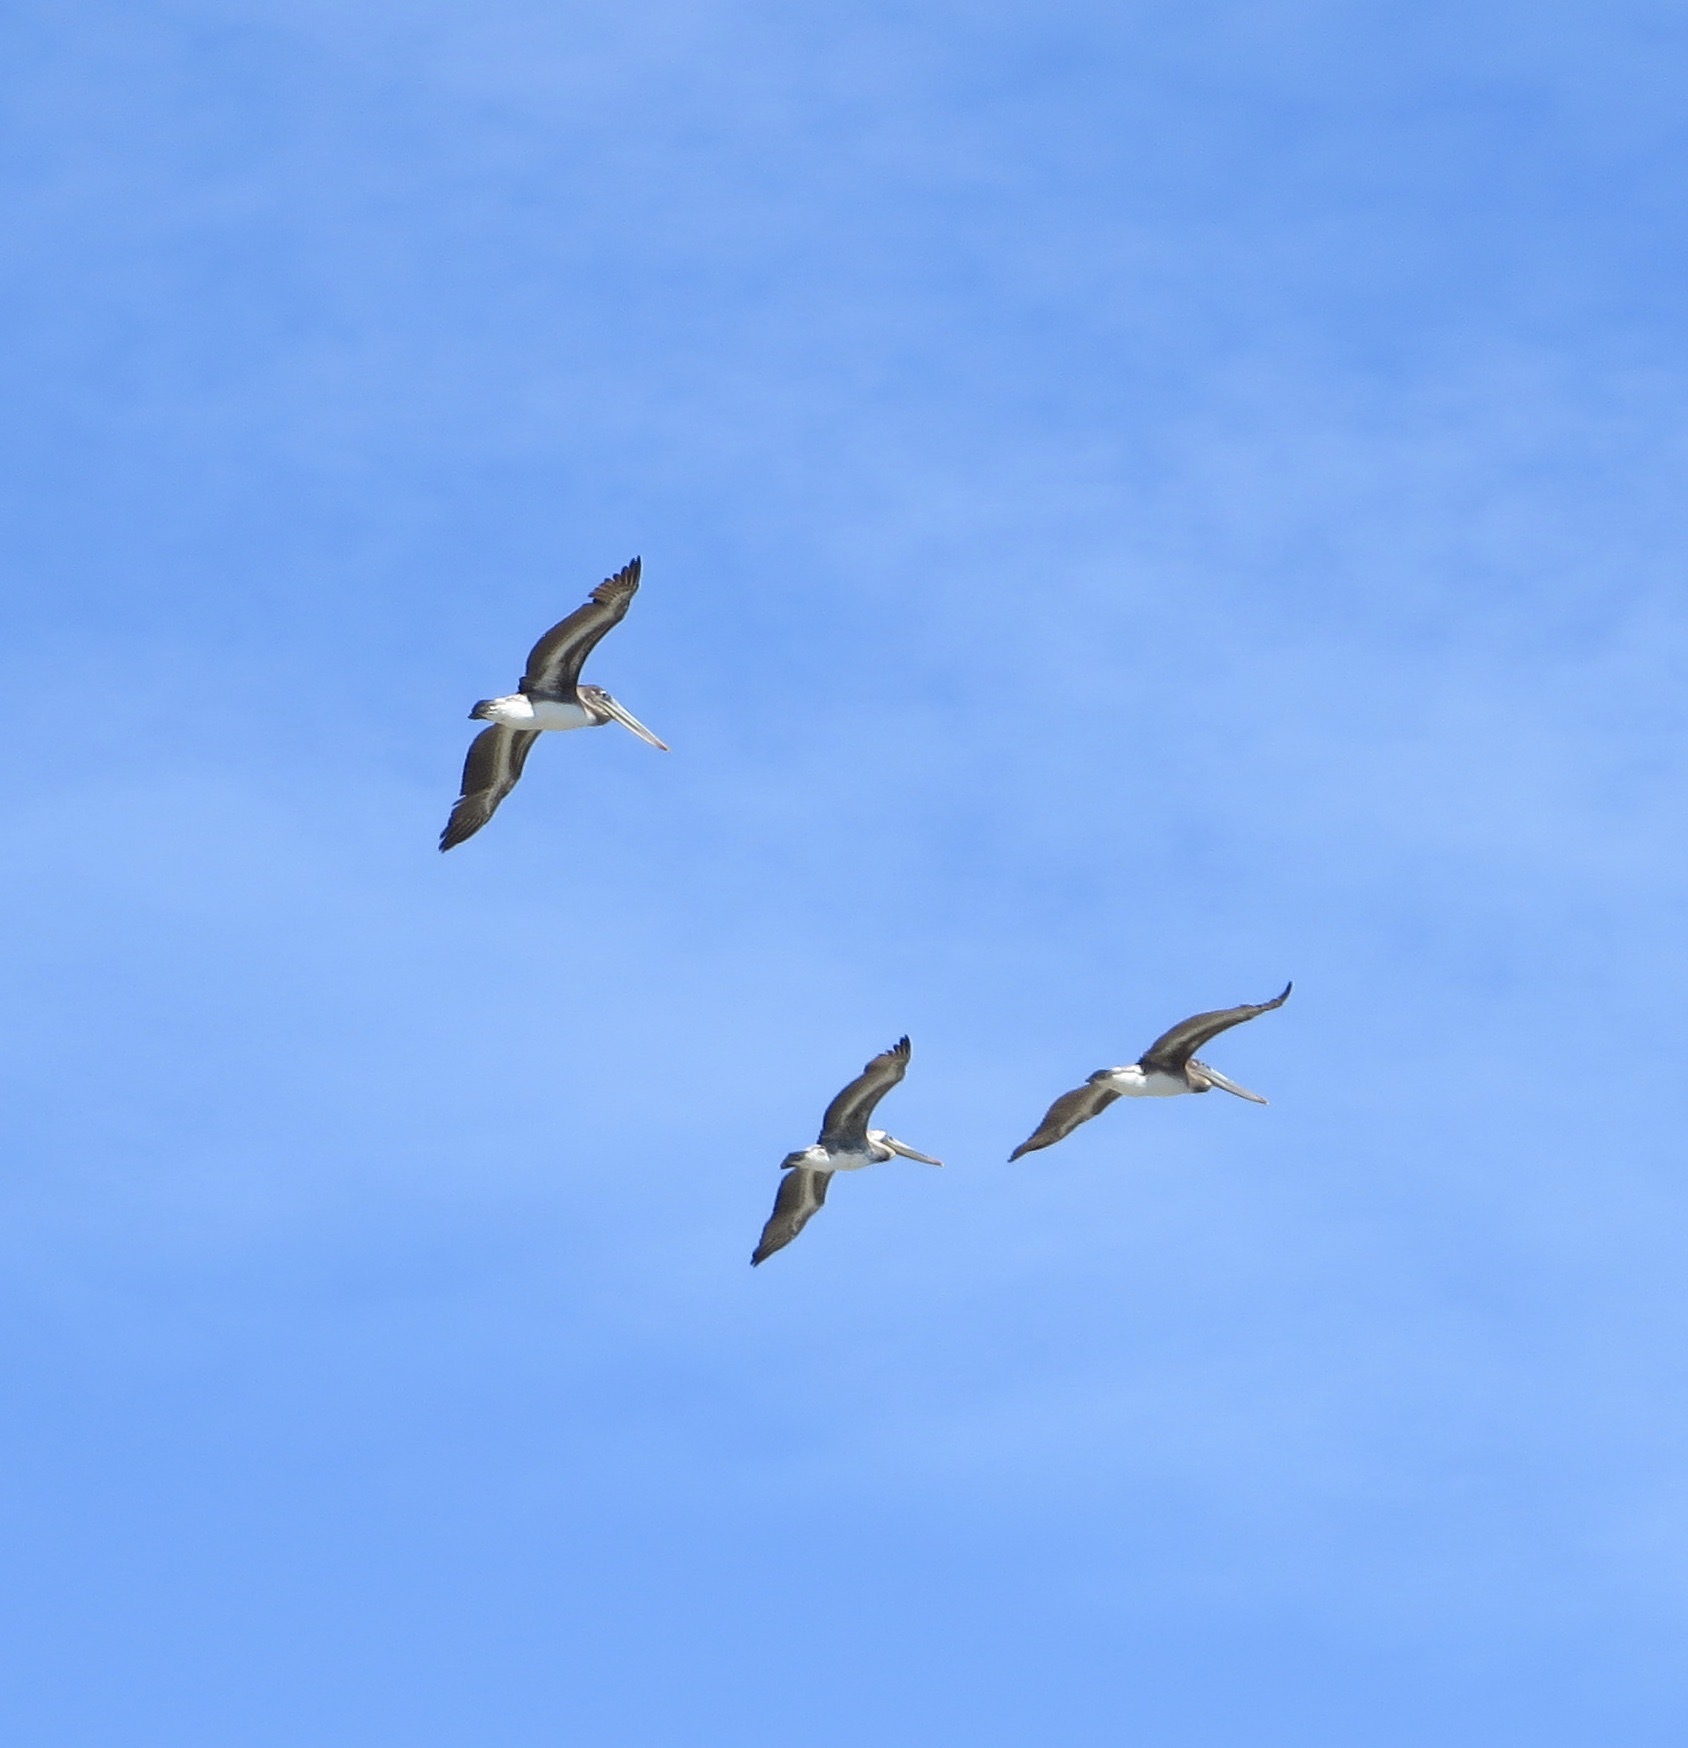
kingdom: Animalia
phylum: Chordata
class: Aves
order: Pelecaniformes
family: Pelecanidae
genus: Pelecanus
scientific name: Pelecanus occidentalis
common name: Brown pelican
